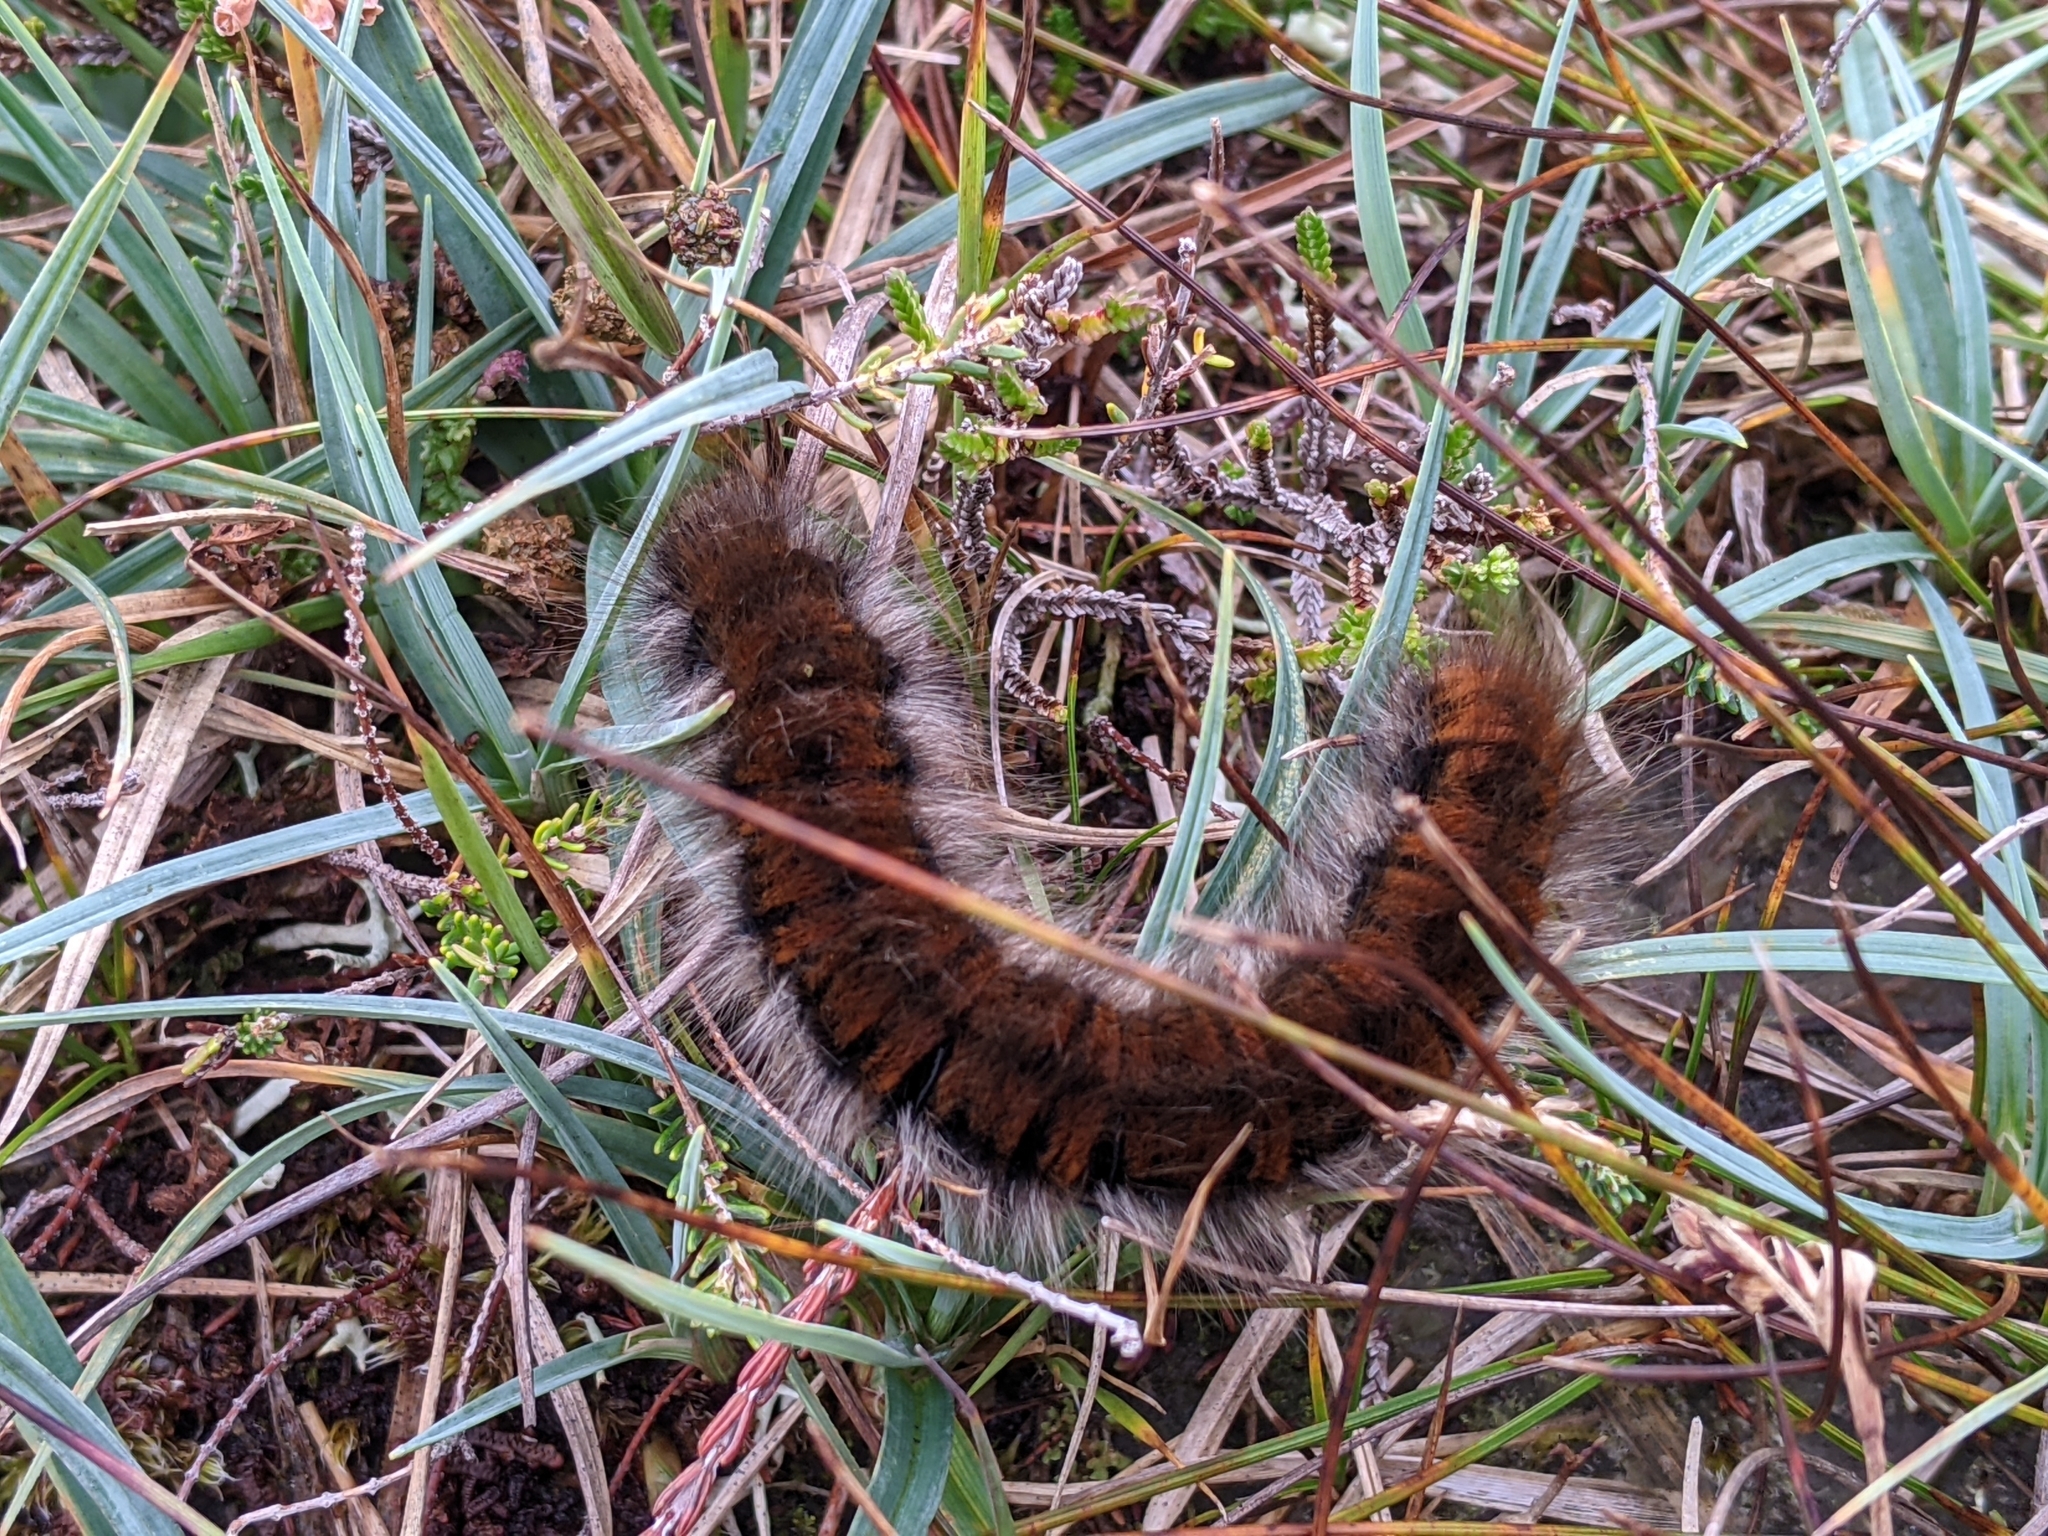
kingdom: Animalia
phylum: Arthropoda
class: Insecta
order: Lepidoptera
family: Lasiocampidae
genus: Macrothylacia
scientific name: Macrothylacia rubi
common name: Fox moth
